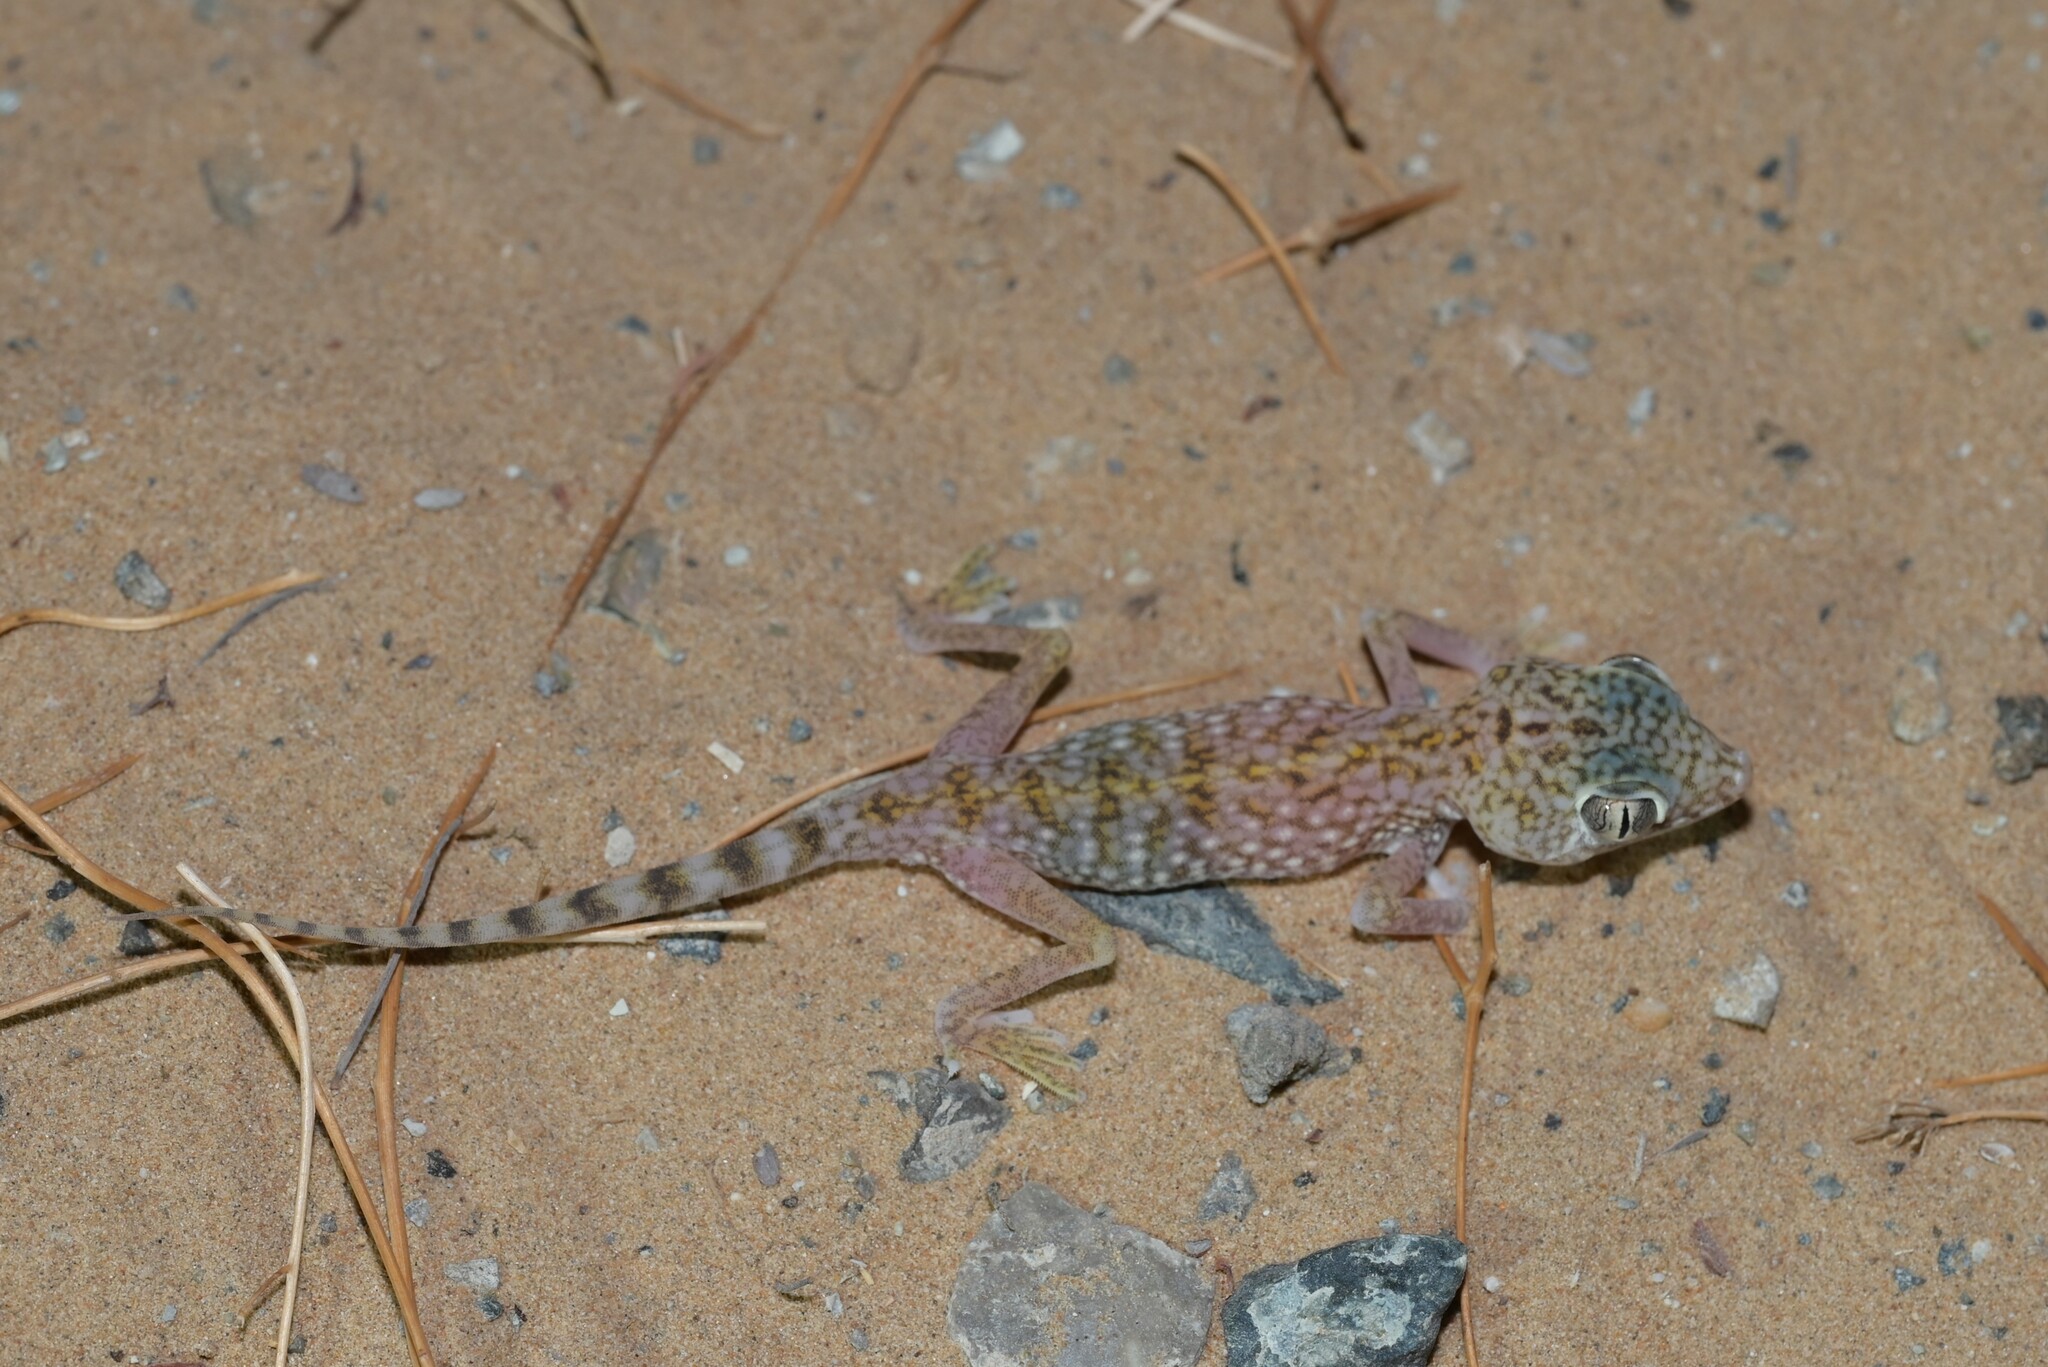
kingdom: Animalia
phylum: Chordata
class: Squamata
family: Gekkonidae
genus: Stenodactylus
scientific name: Stenodactylus doriae
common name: Dune sand gecko
